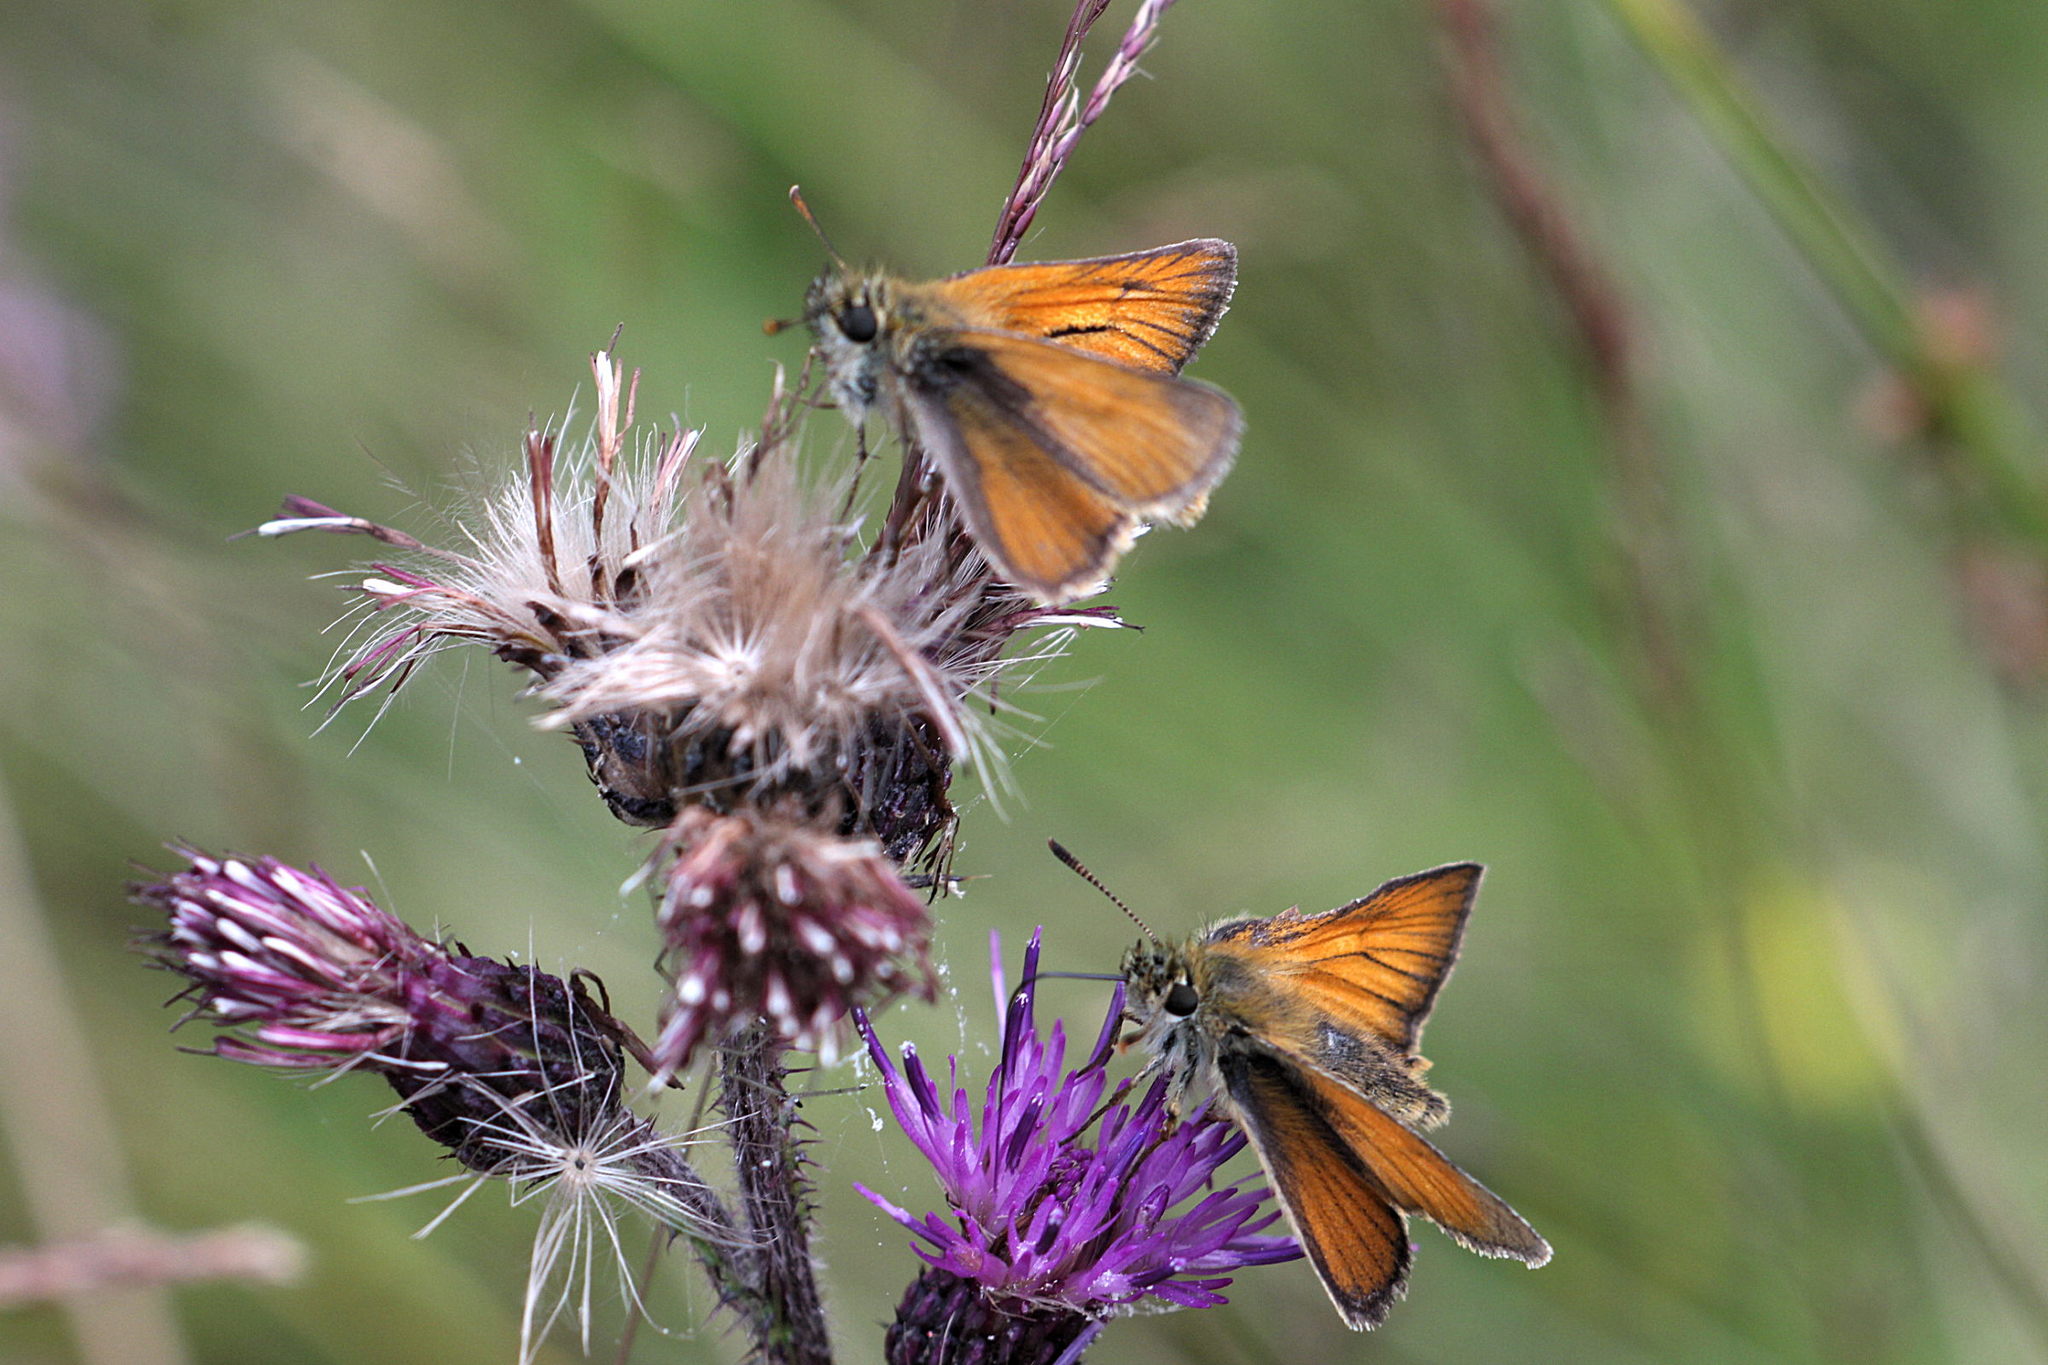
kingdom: Animalia
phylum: Arthropoda
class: Insecta
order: Lepidoptera
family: Hesperiidae
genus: Thymelicus
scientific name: Thymelicus sylvestris
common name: Small skipper
